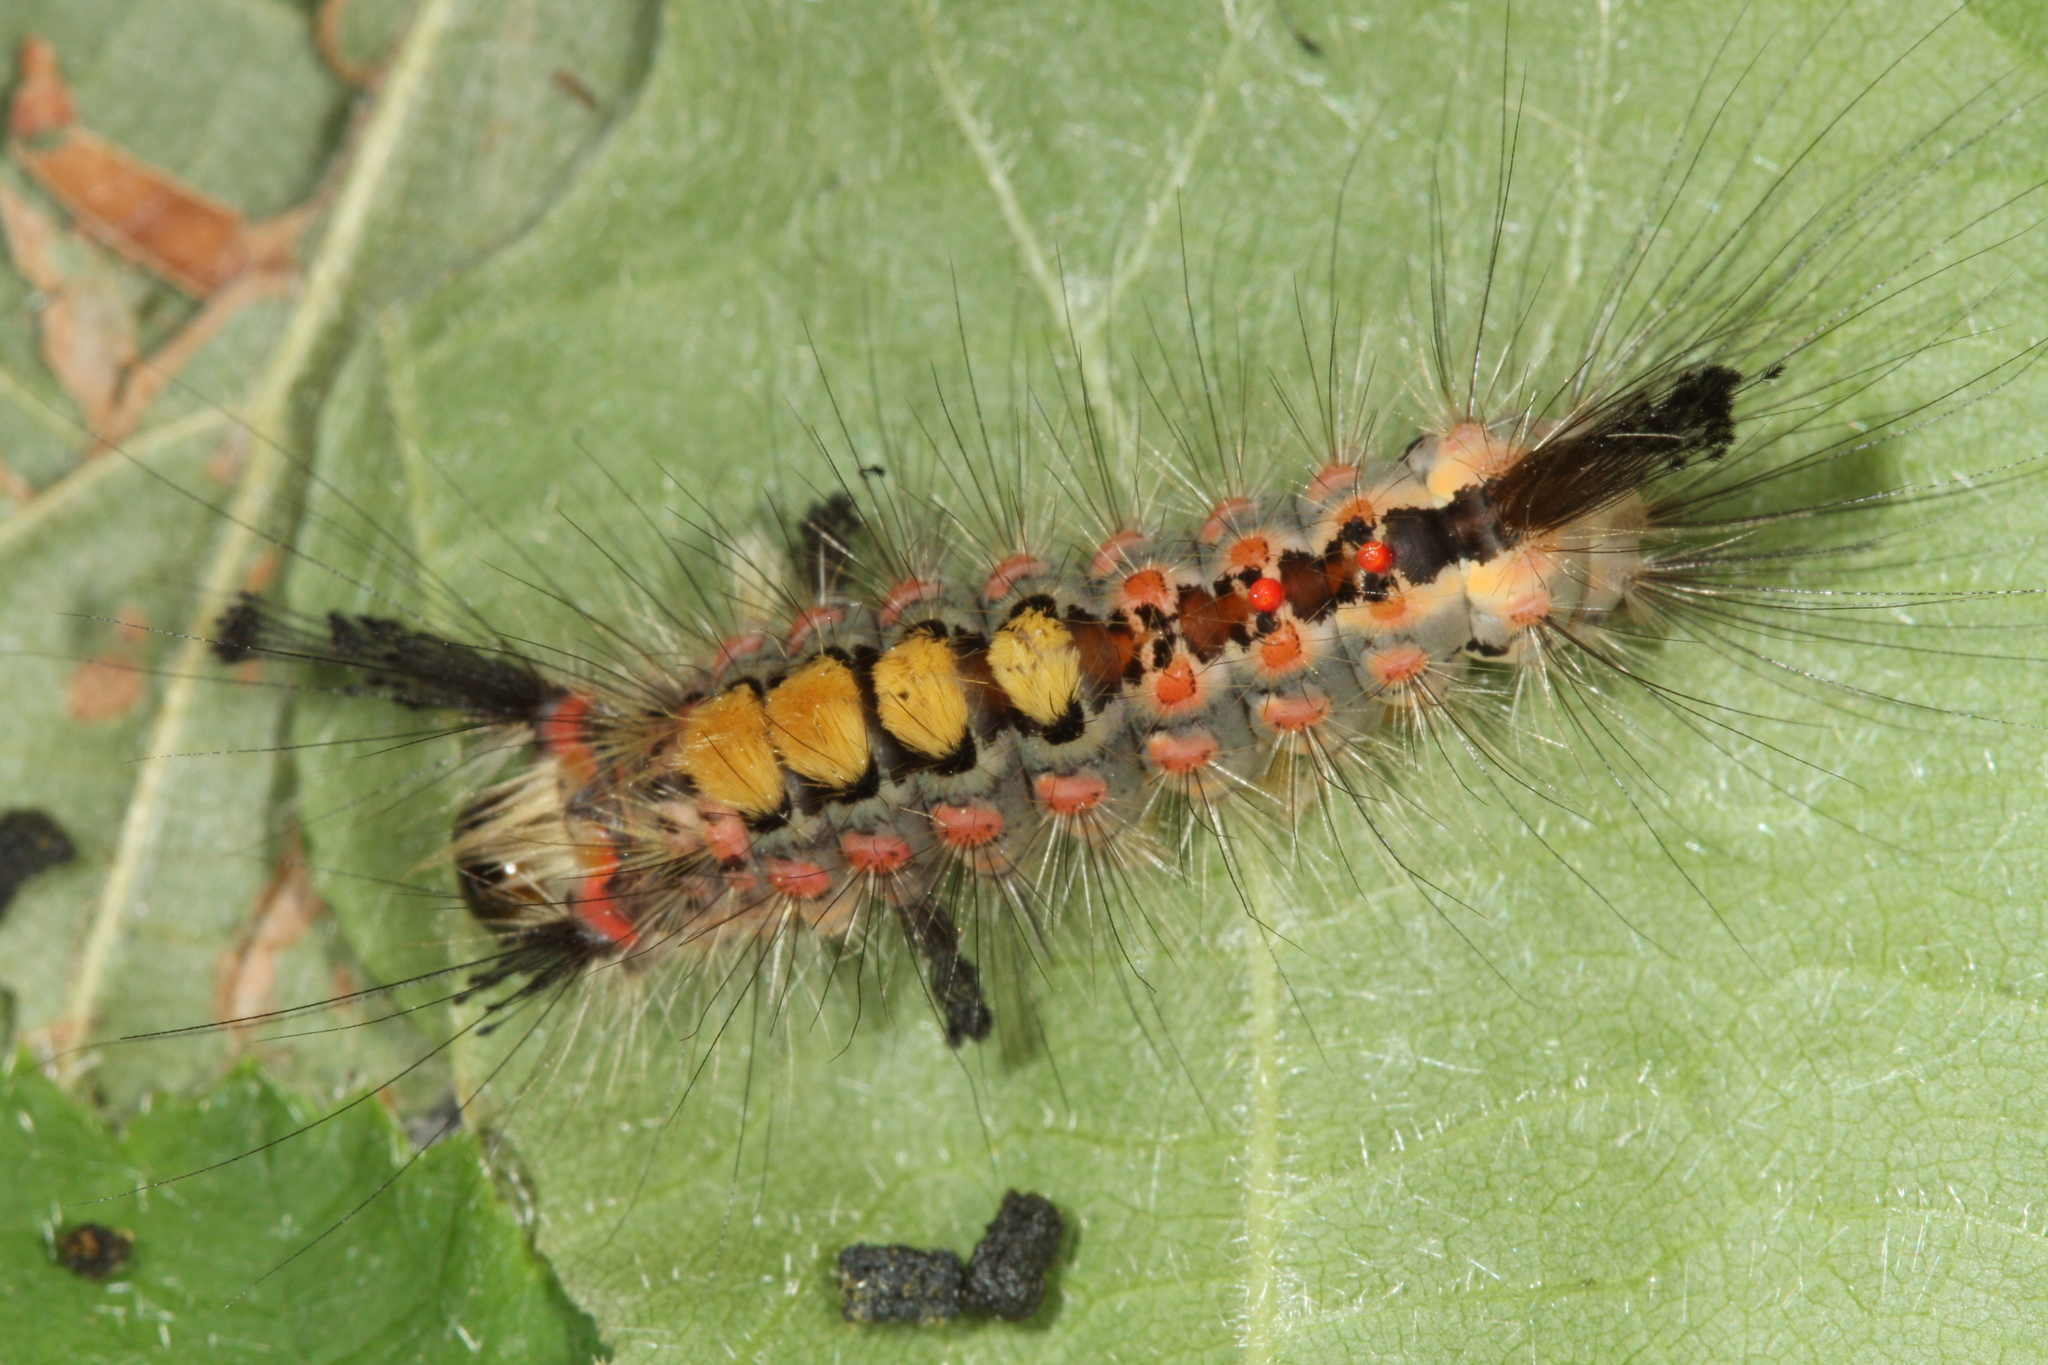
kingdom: Animalia
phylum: Arthropoda
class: Insecta
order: Lepidoptera
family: Erebidae
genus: Orgyia
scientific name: Orgyia antiqua
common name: Vapourer
